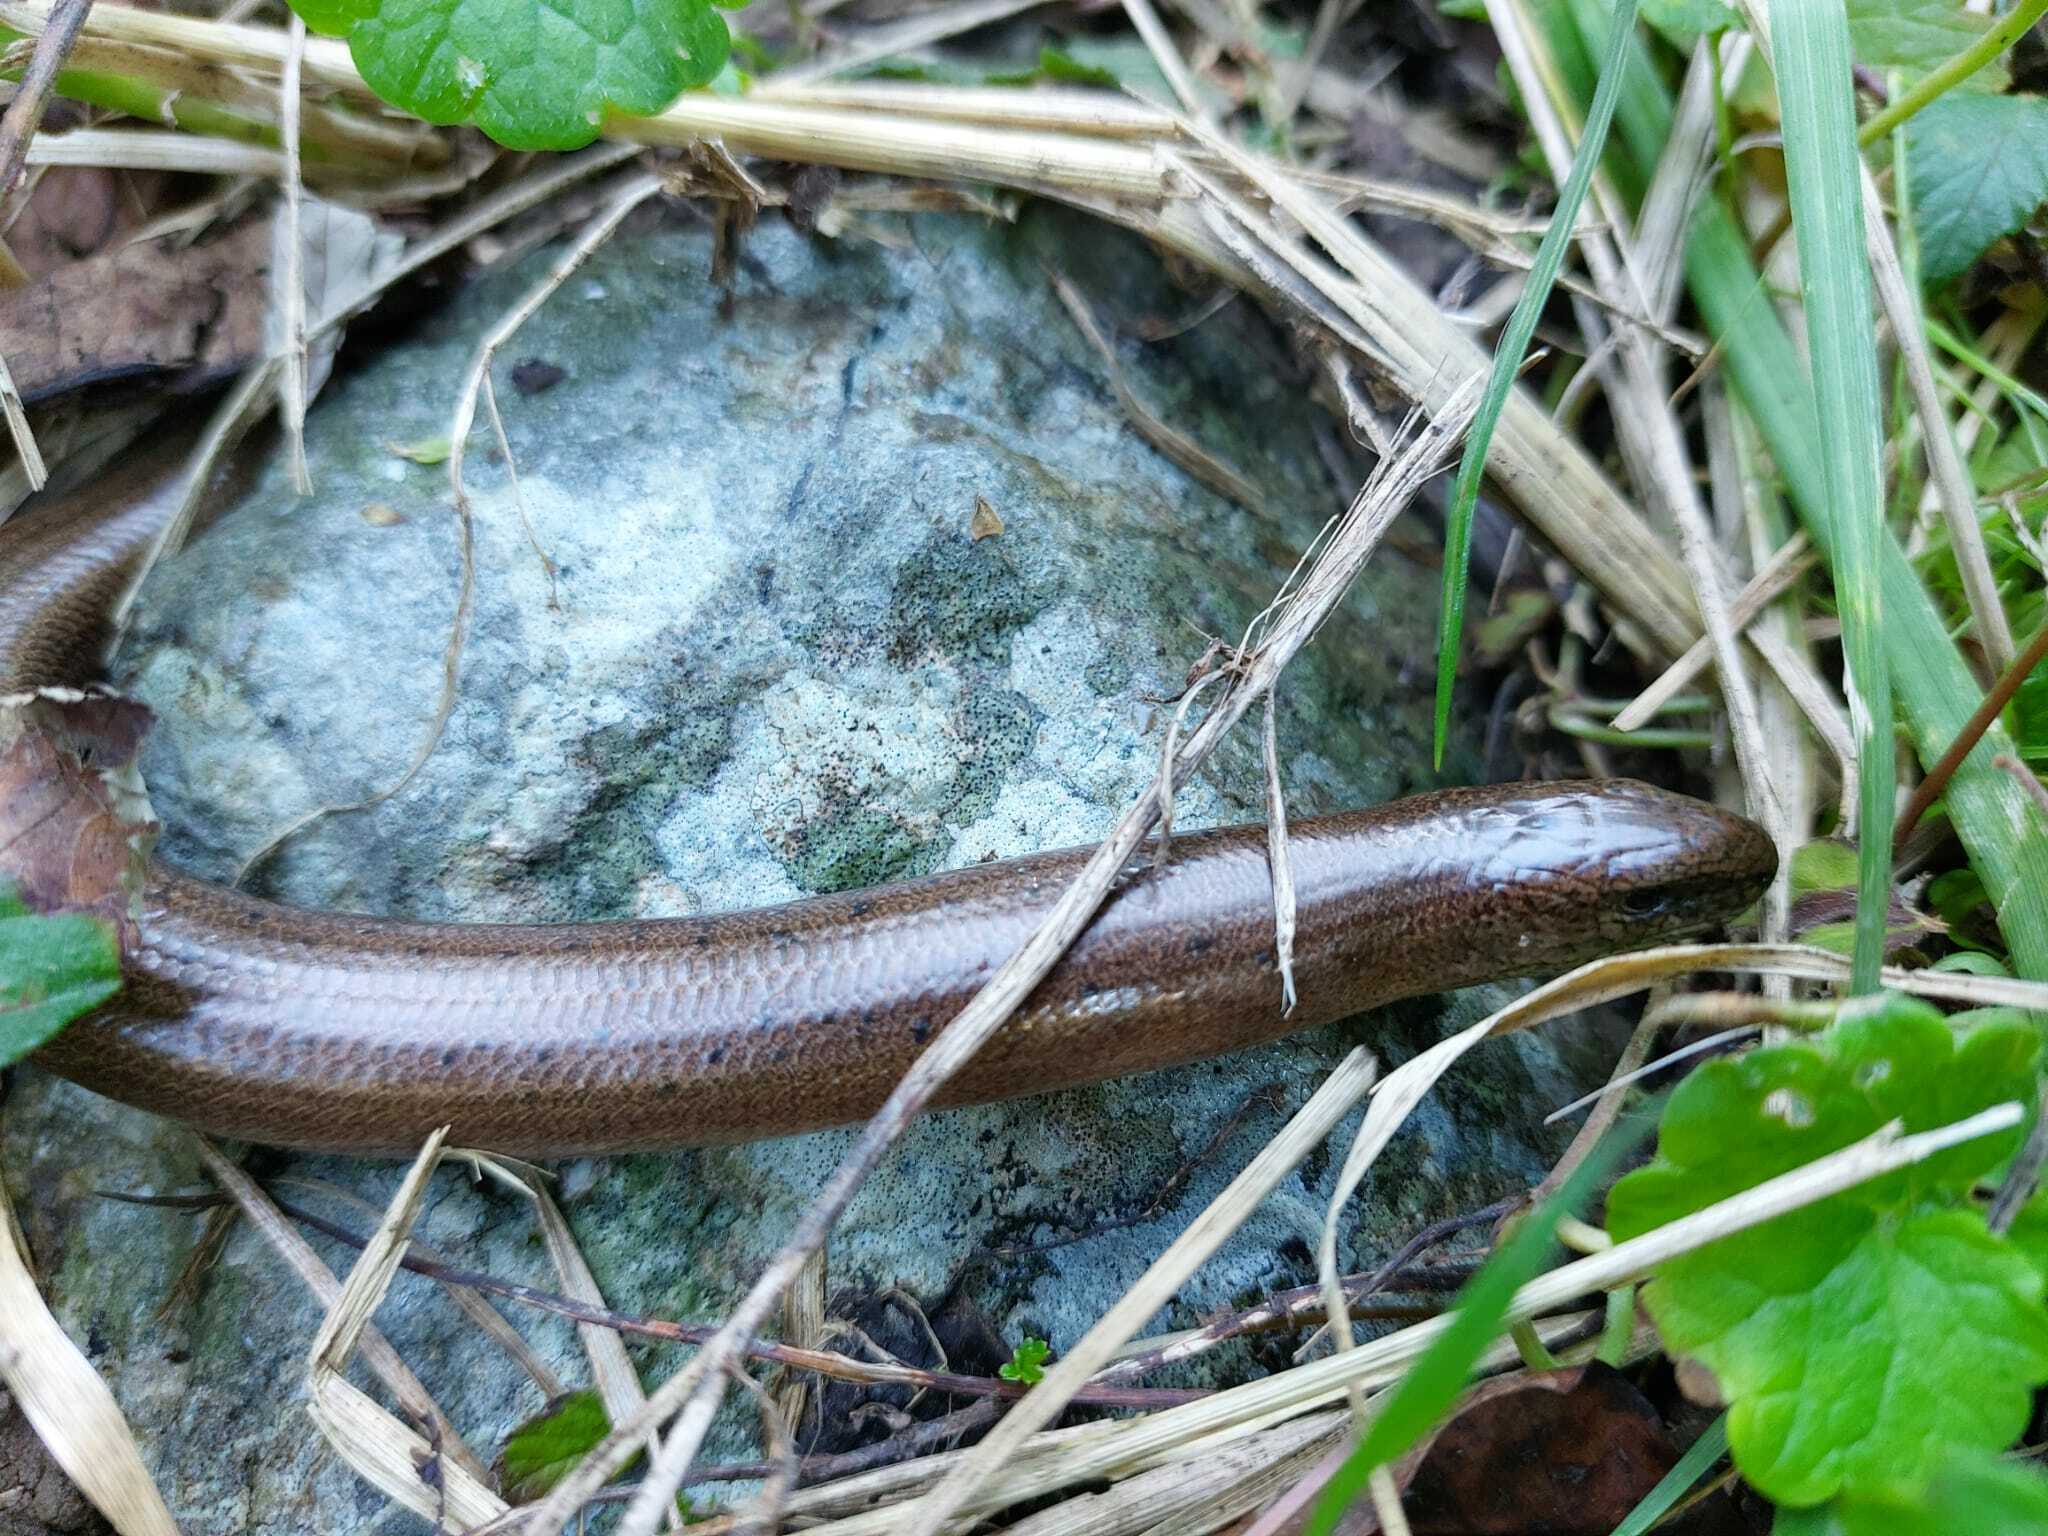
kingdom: Animalia
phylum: Chordata
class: Squamata
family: Anguidae
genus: Anguis
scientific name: Anguis fragilis
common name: Slow worm
